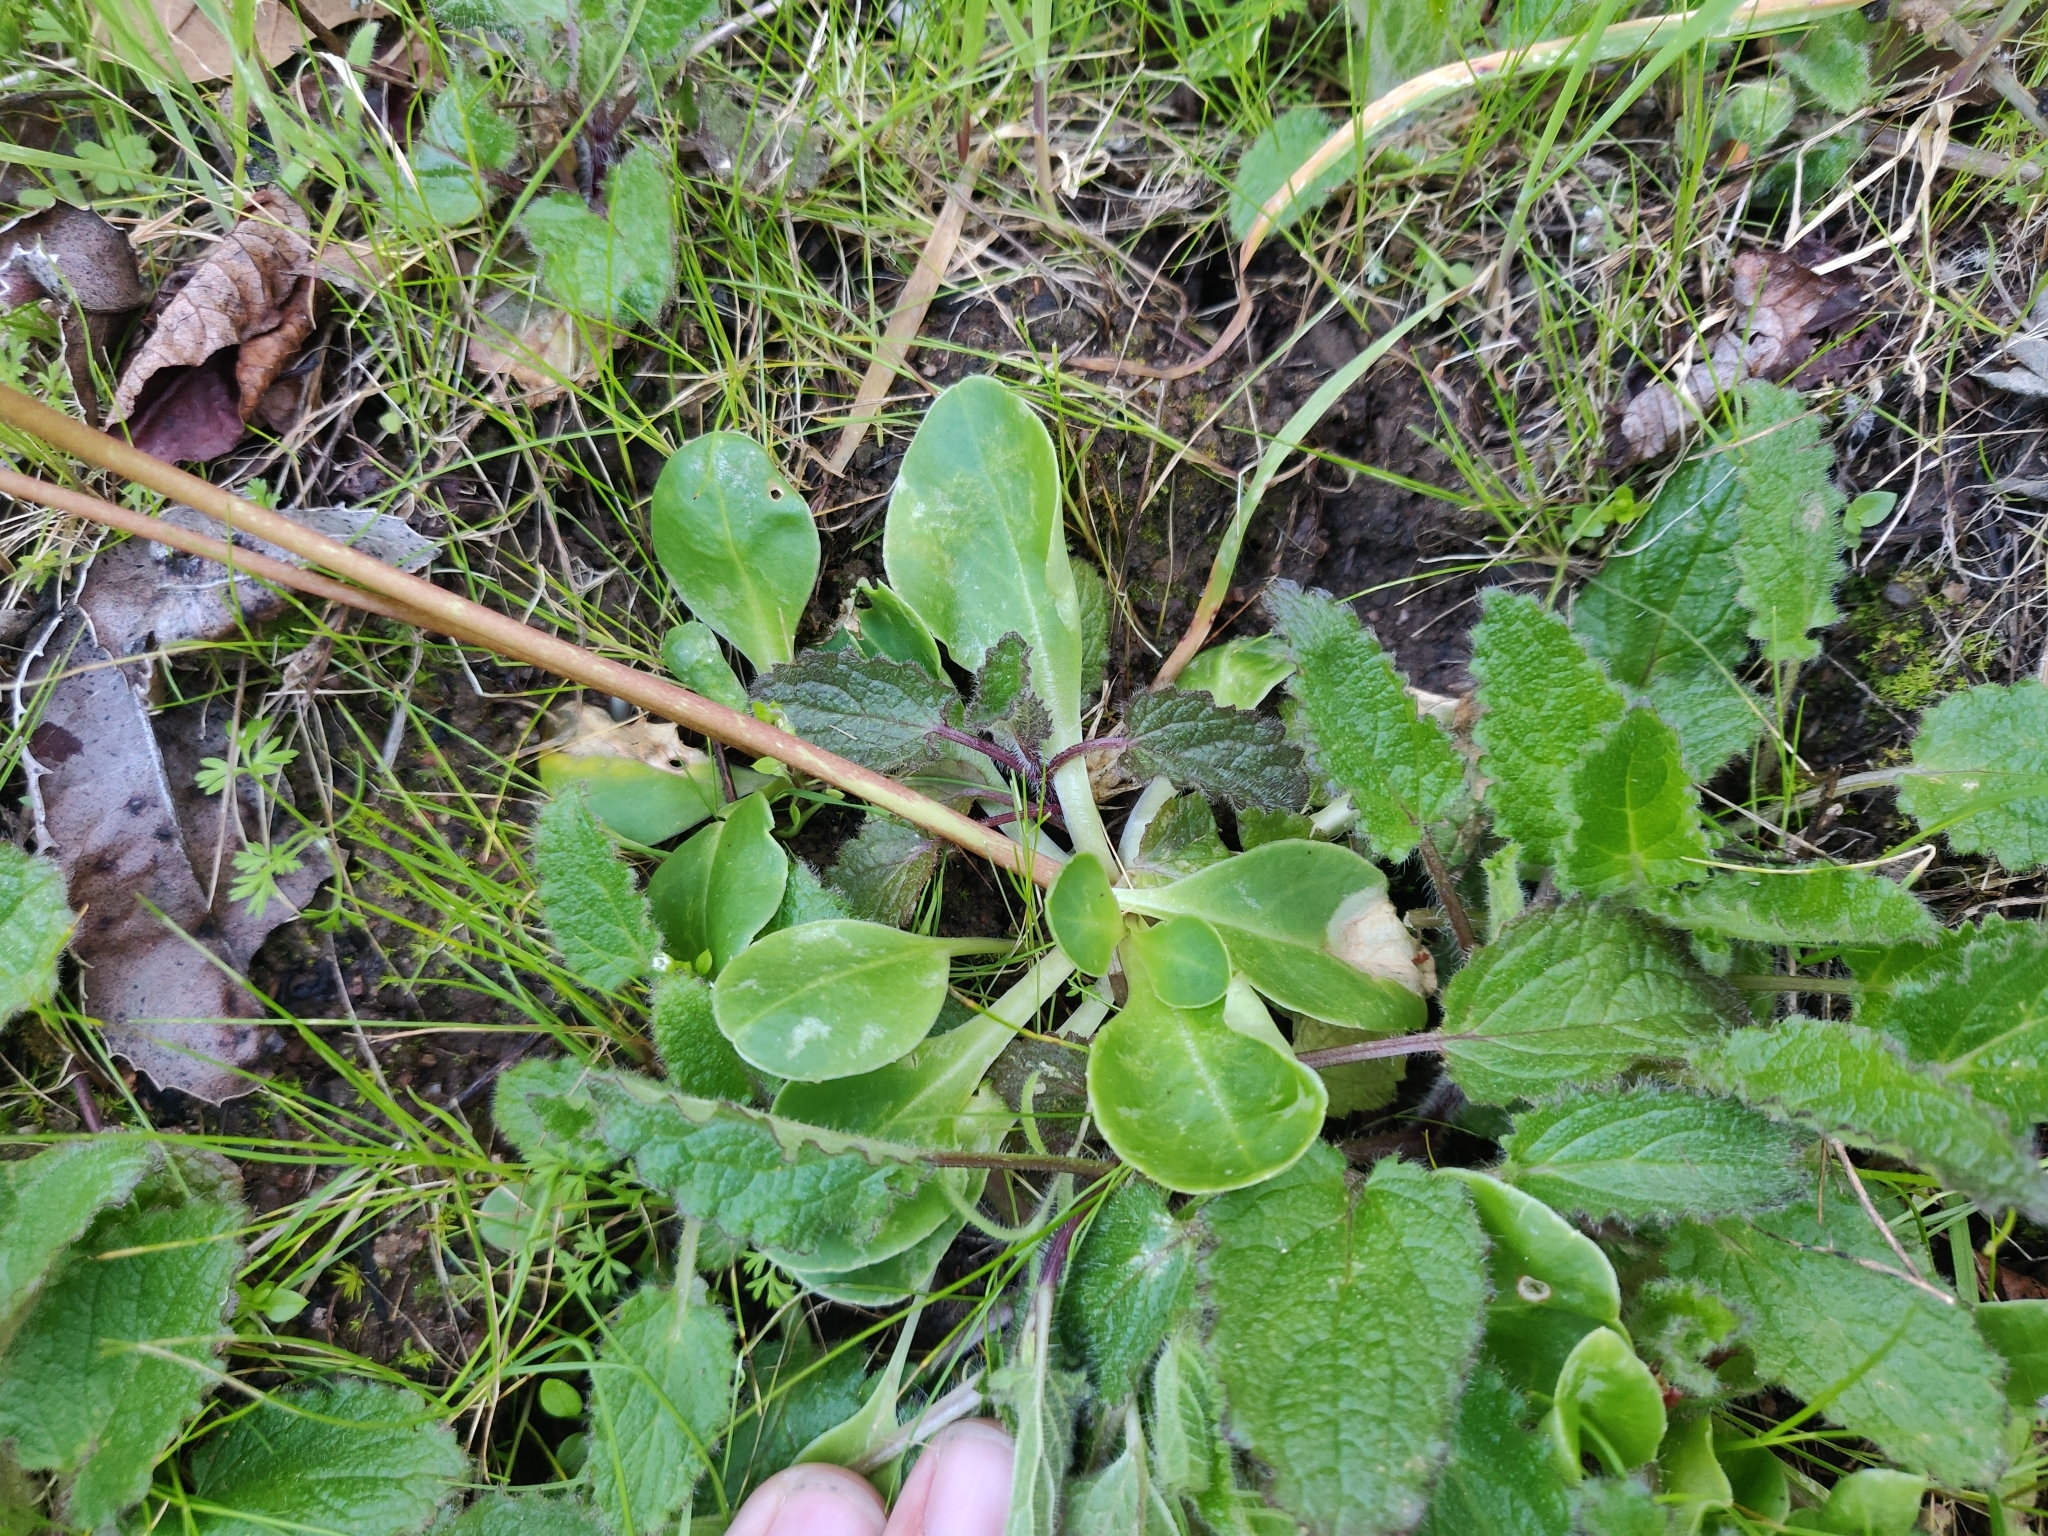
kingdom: Plantae
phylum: Tracheophyta
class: Magnoliopsida
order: Ericales
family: Primulaceae
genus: Dodecatheon
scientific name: Dodecatheon hendersonii
